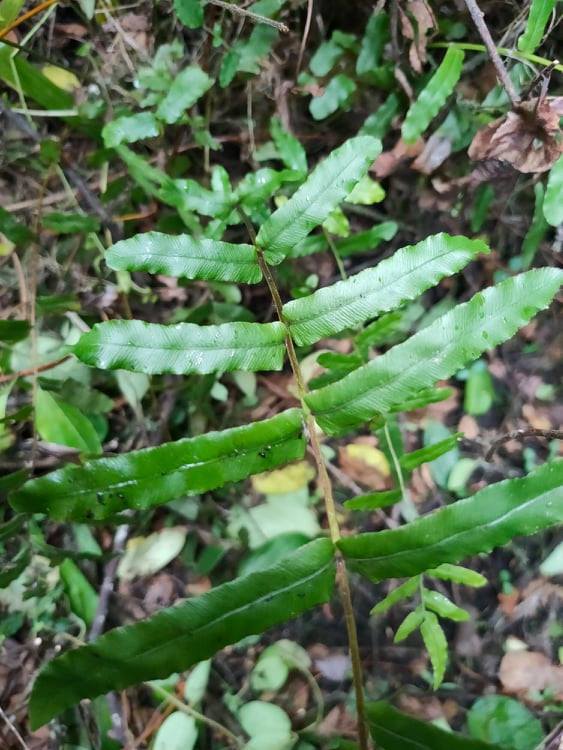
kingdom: Plantae
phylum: Tracheophyta
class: Polypodiopsida
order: Polypodiales
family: Blechnaceae
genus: Parablechnum
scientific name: Parablechnum minus
